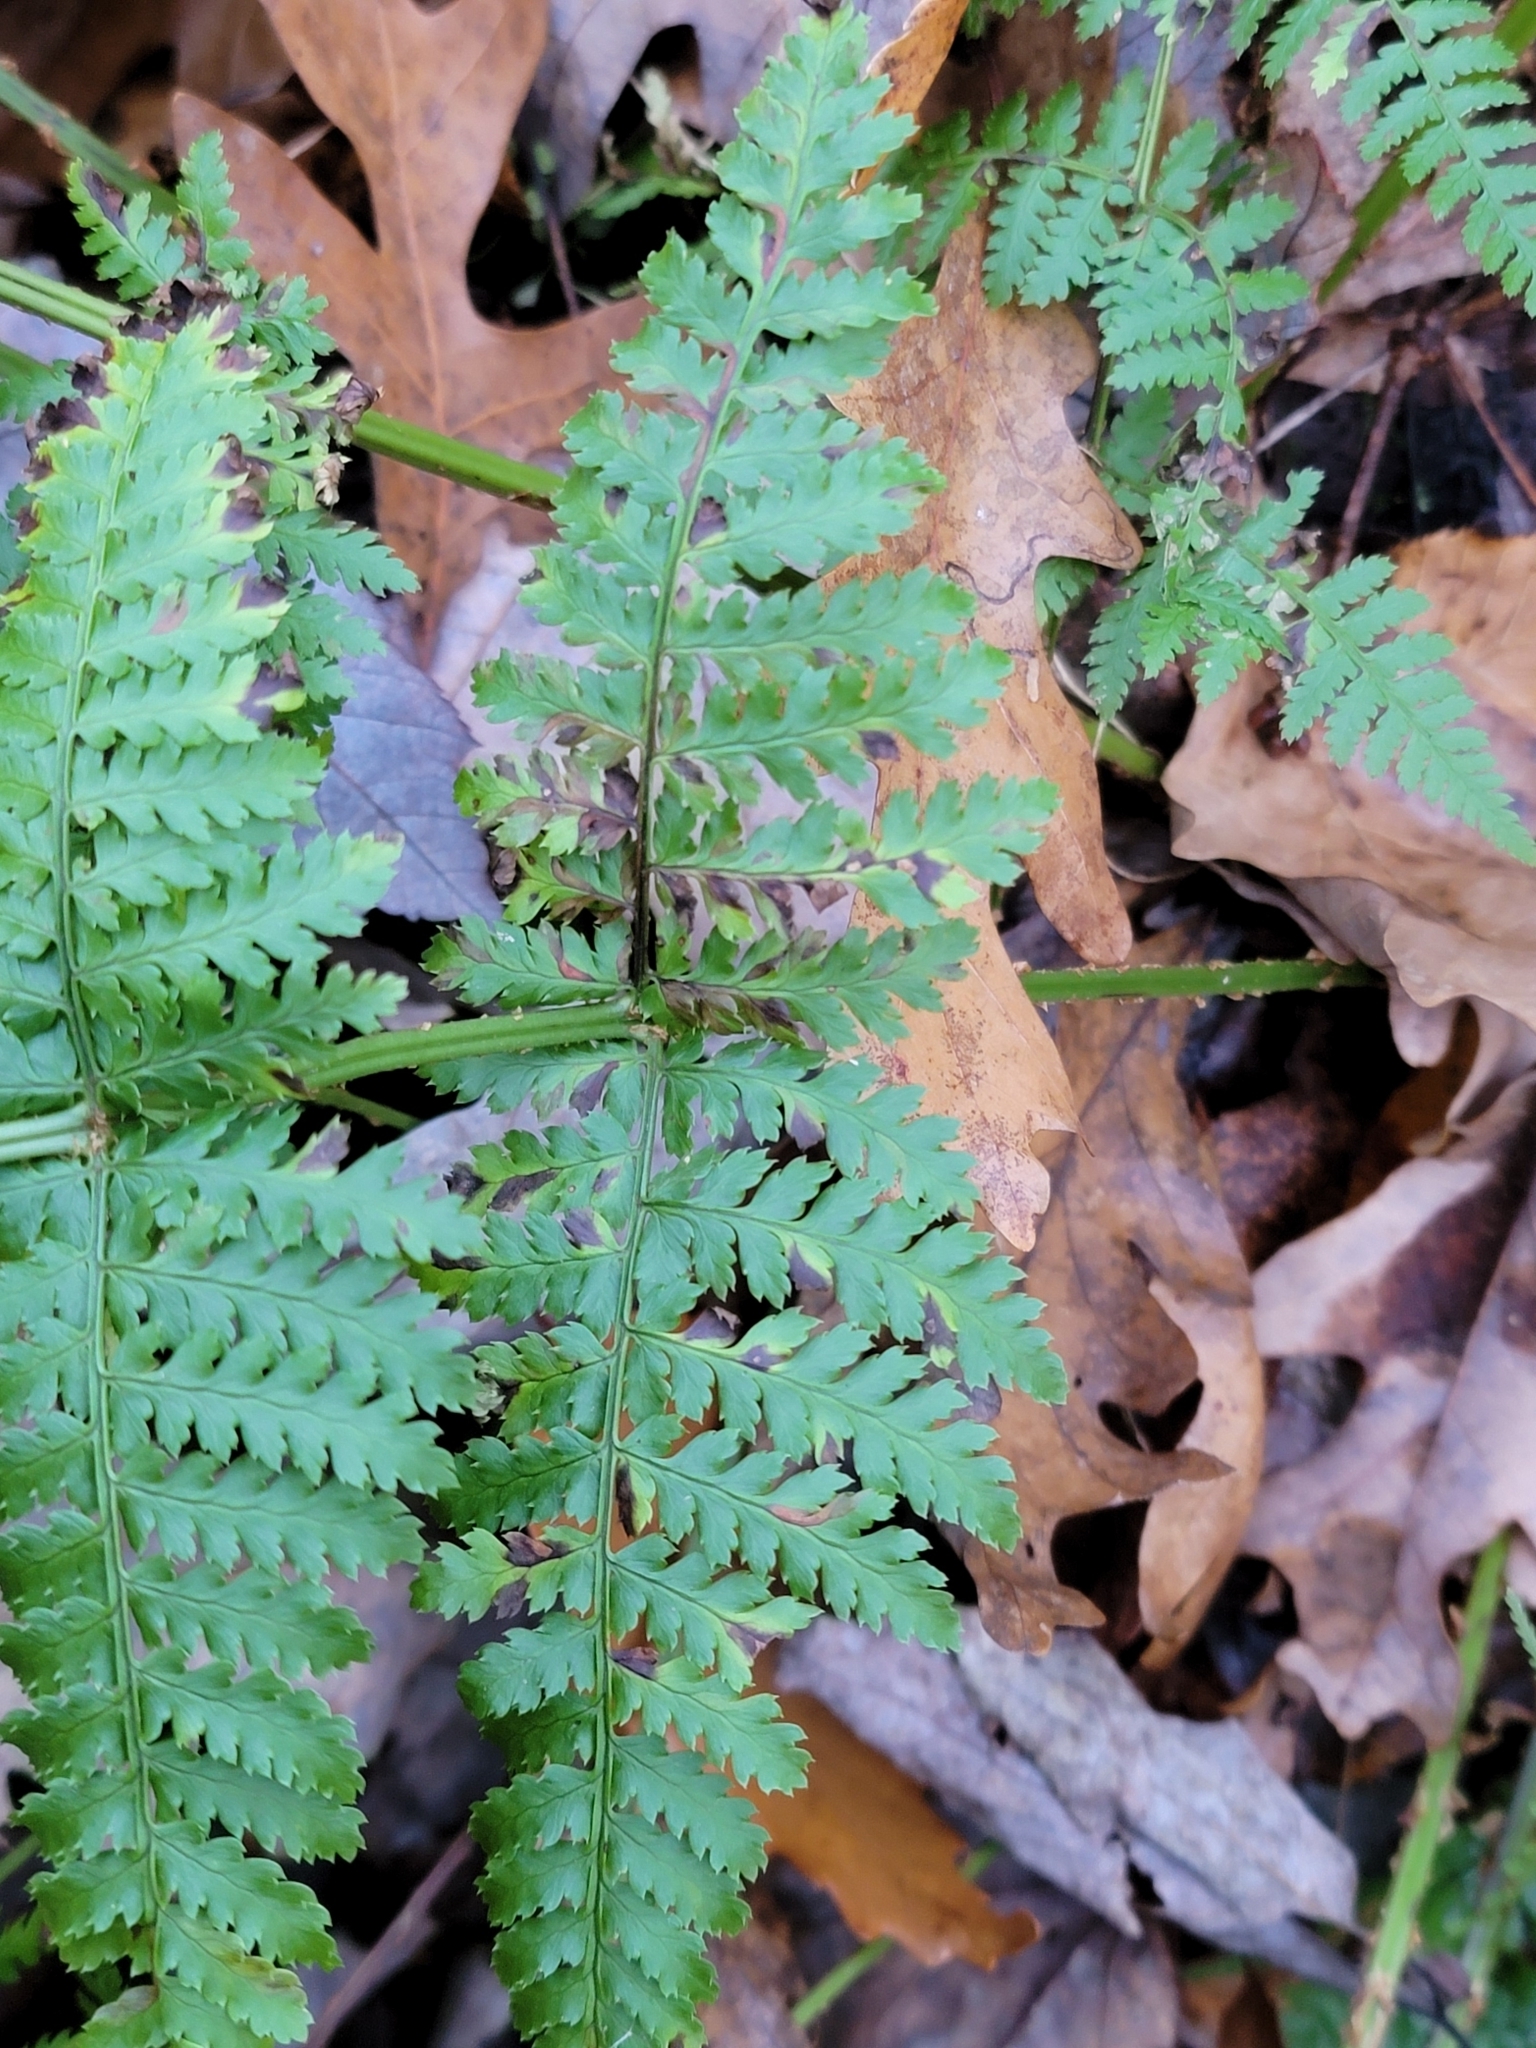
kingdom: Plantae
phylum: Tracheophyta
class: Polypodiopsida
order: Polypodiales
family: Dryopteridaceae
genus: Dryopteris
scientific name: Dryopteris intermedia
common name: Evergreen wood fern
